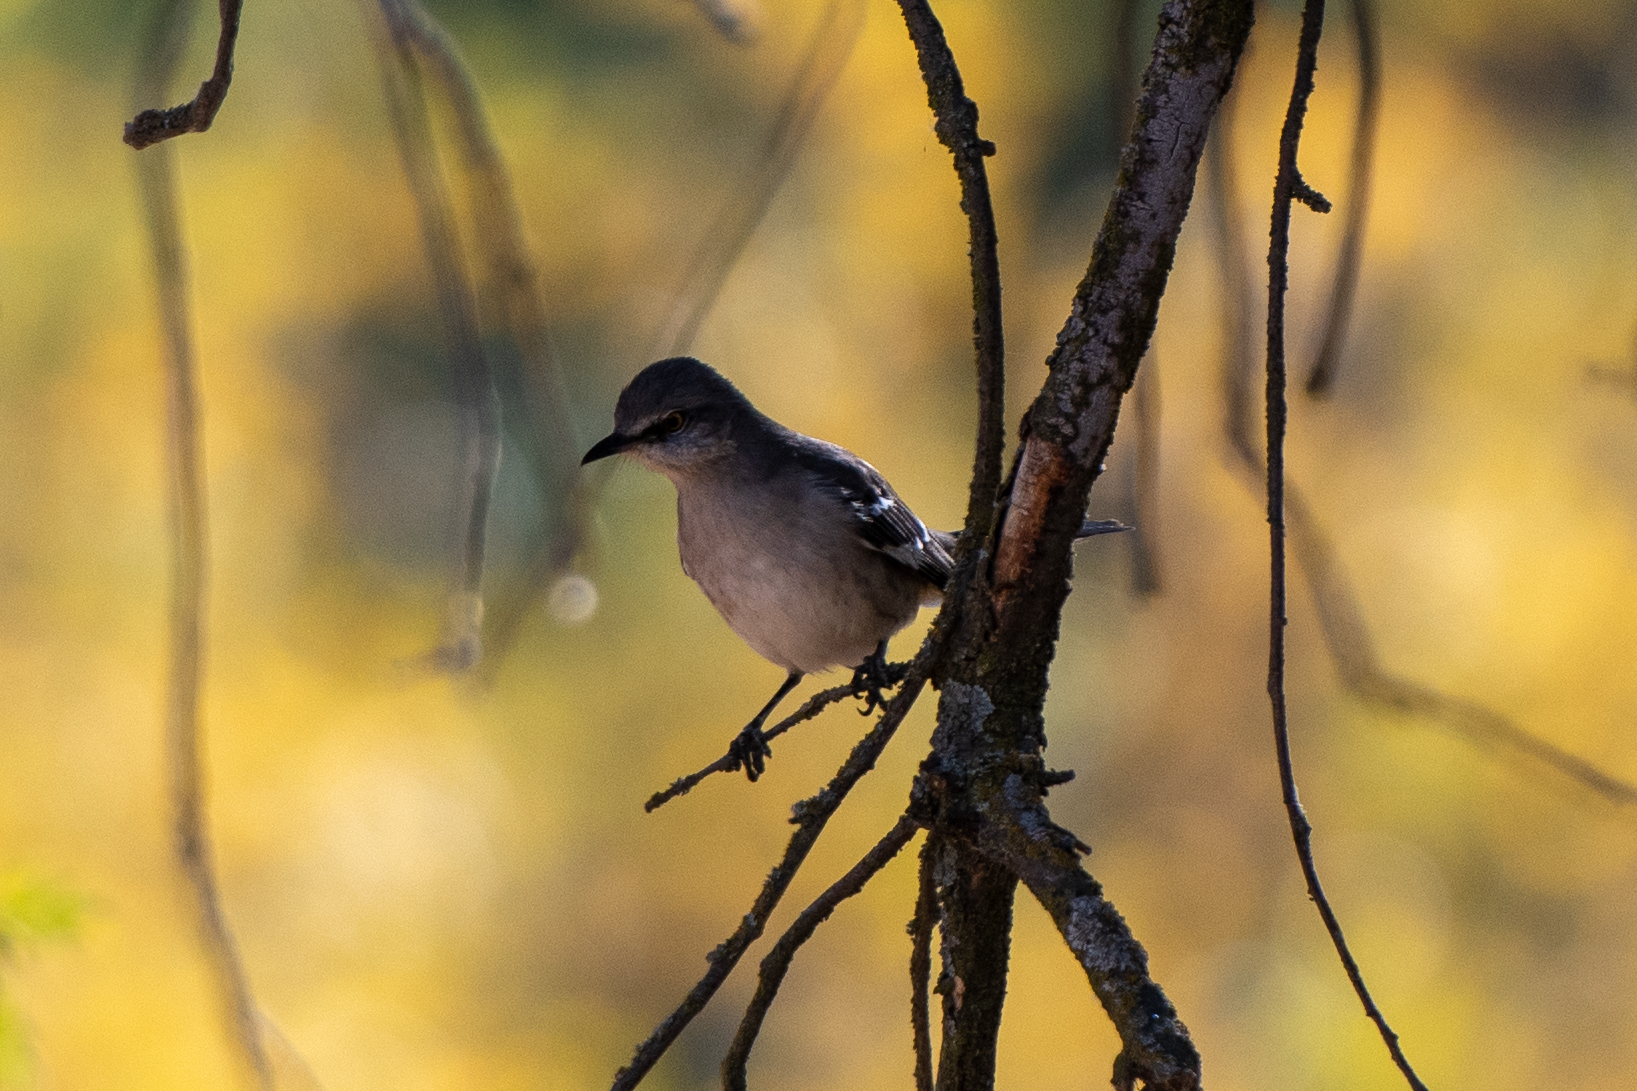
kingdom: Animalia
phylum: Chordata
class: Aves
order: Passeriformes
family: Mimidae
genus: Mimus
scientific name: Mimus polyglottos
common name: Northern mockingbird
